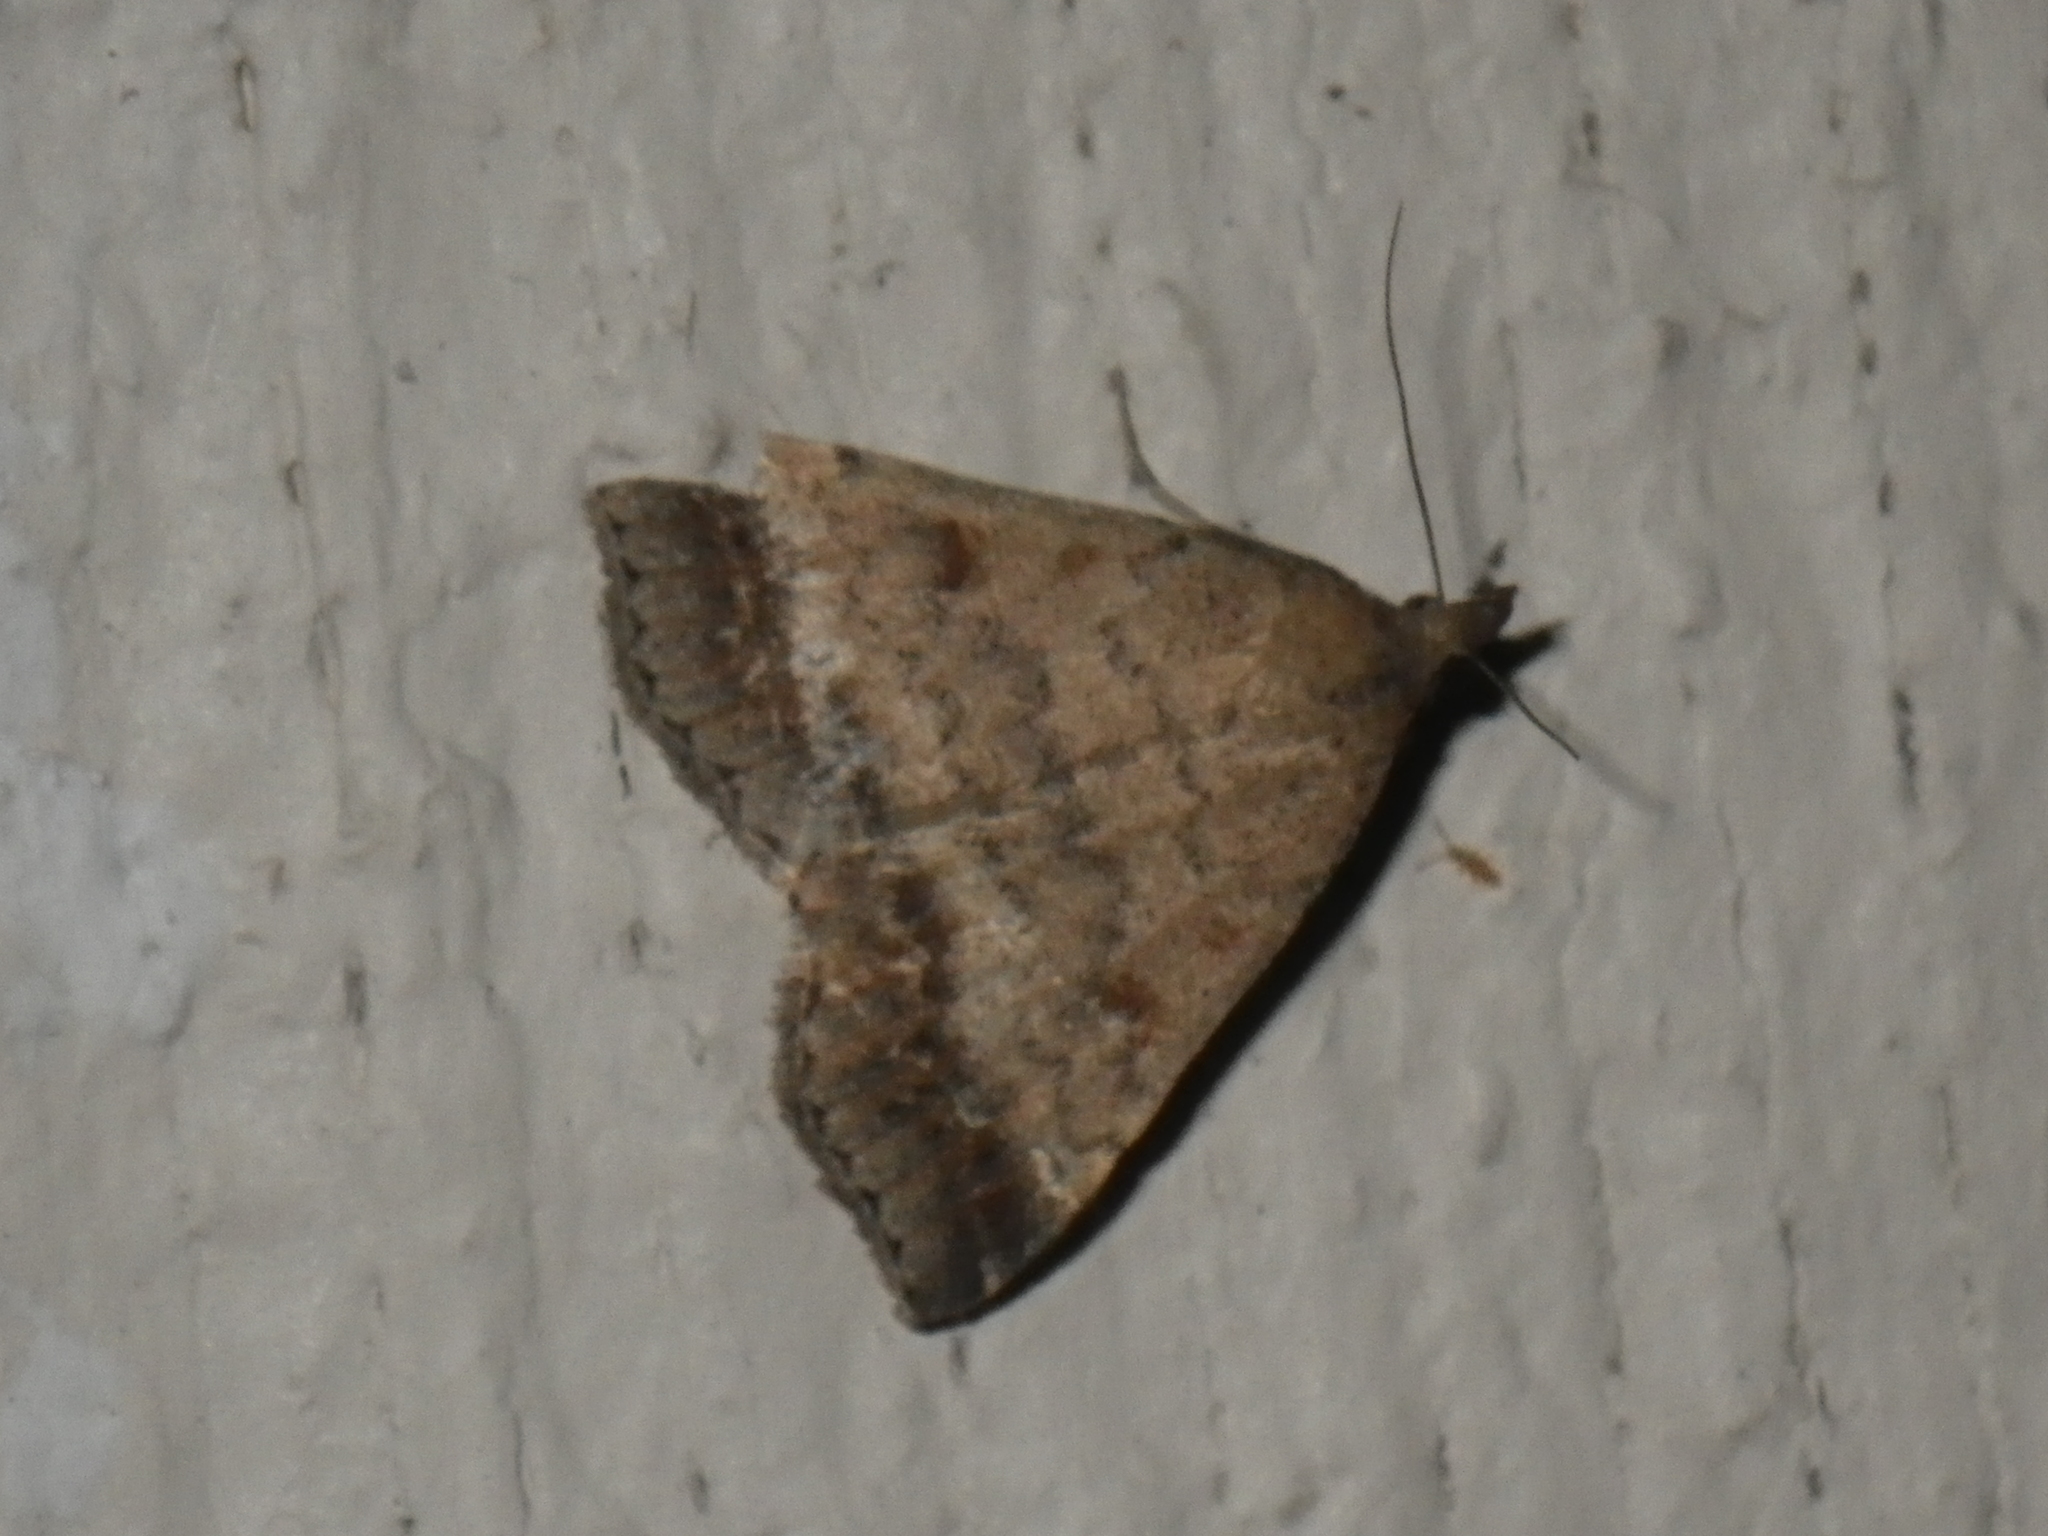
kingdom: Animalia
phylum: Arthropoda
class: Insecta
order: Lepidoptera
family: Erebidae
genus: Tetanolita
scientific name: Tetanolita palligera
